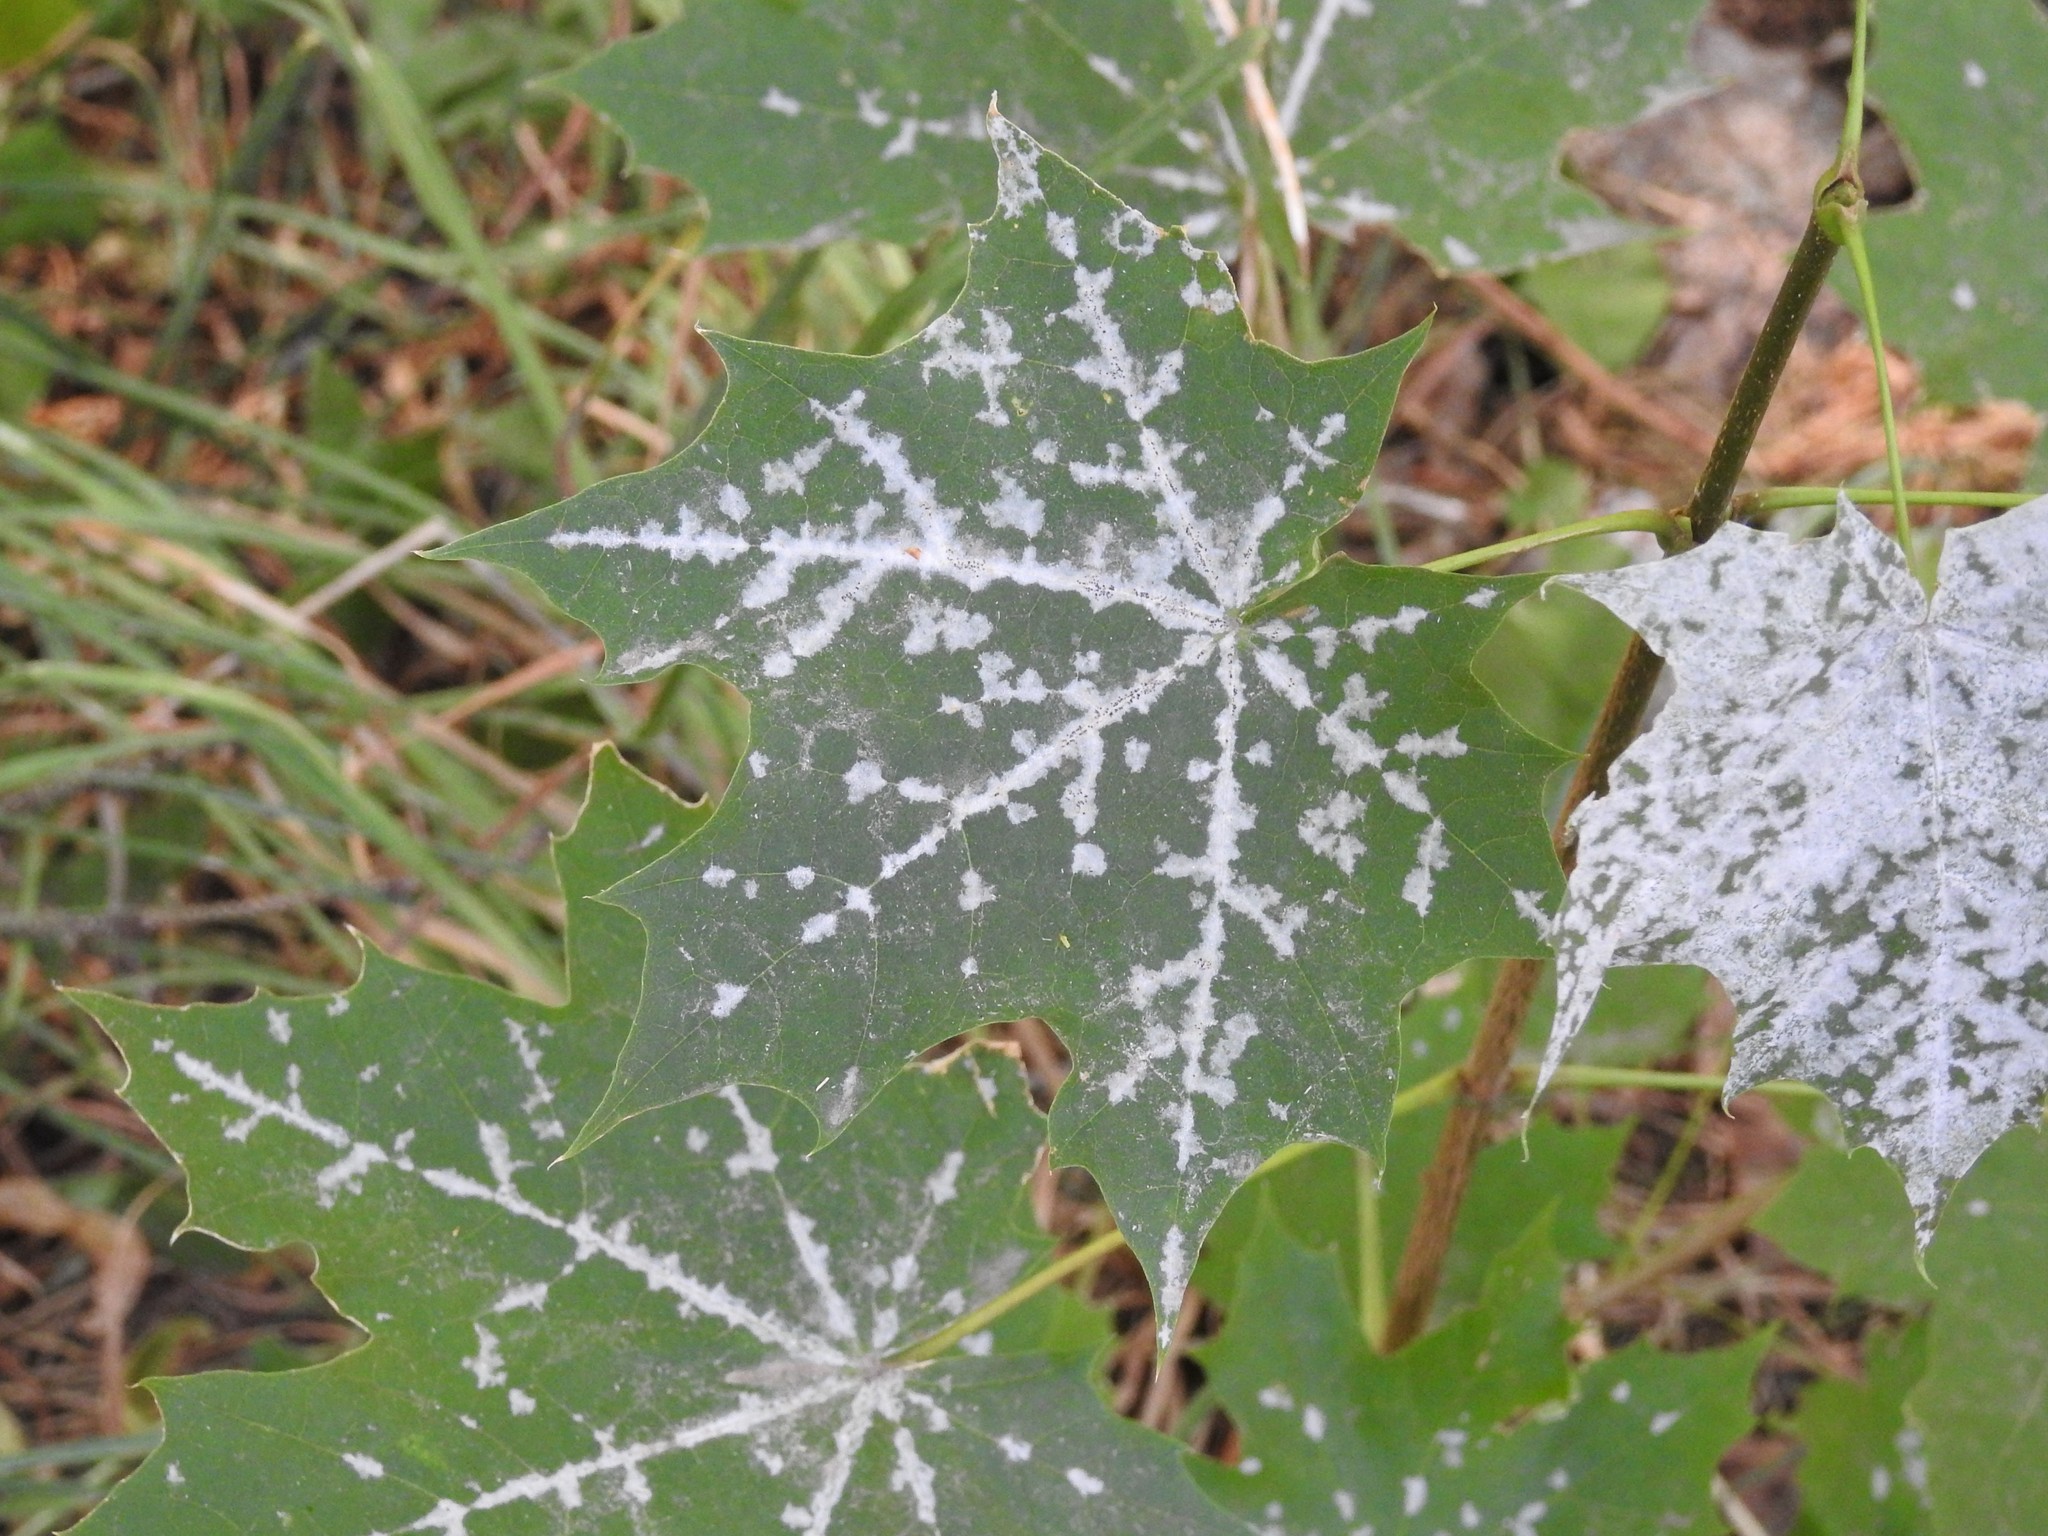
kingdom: Plantae
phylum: Tracheophyta
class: Magnoliopsida
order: Sapindales
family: Sapindaceae
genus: Acer
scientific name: Acer platanoides
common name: Norway maple
